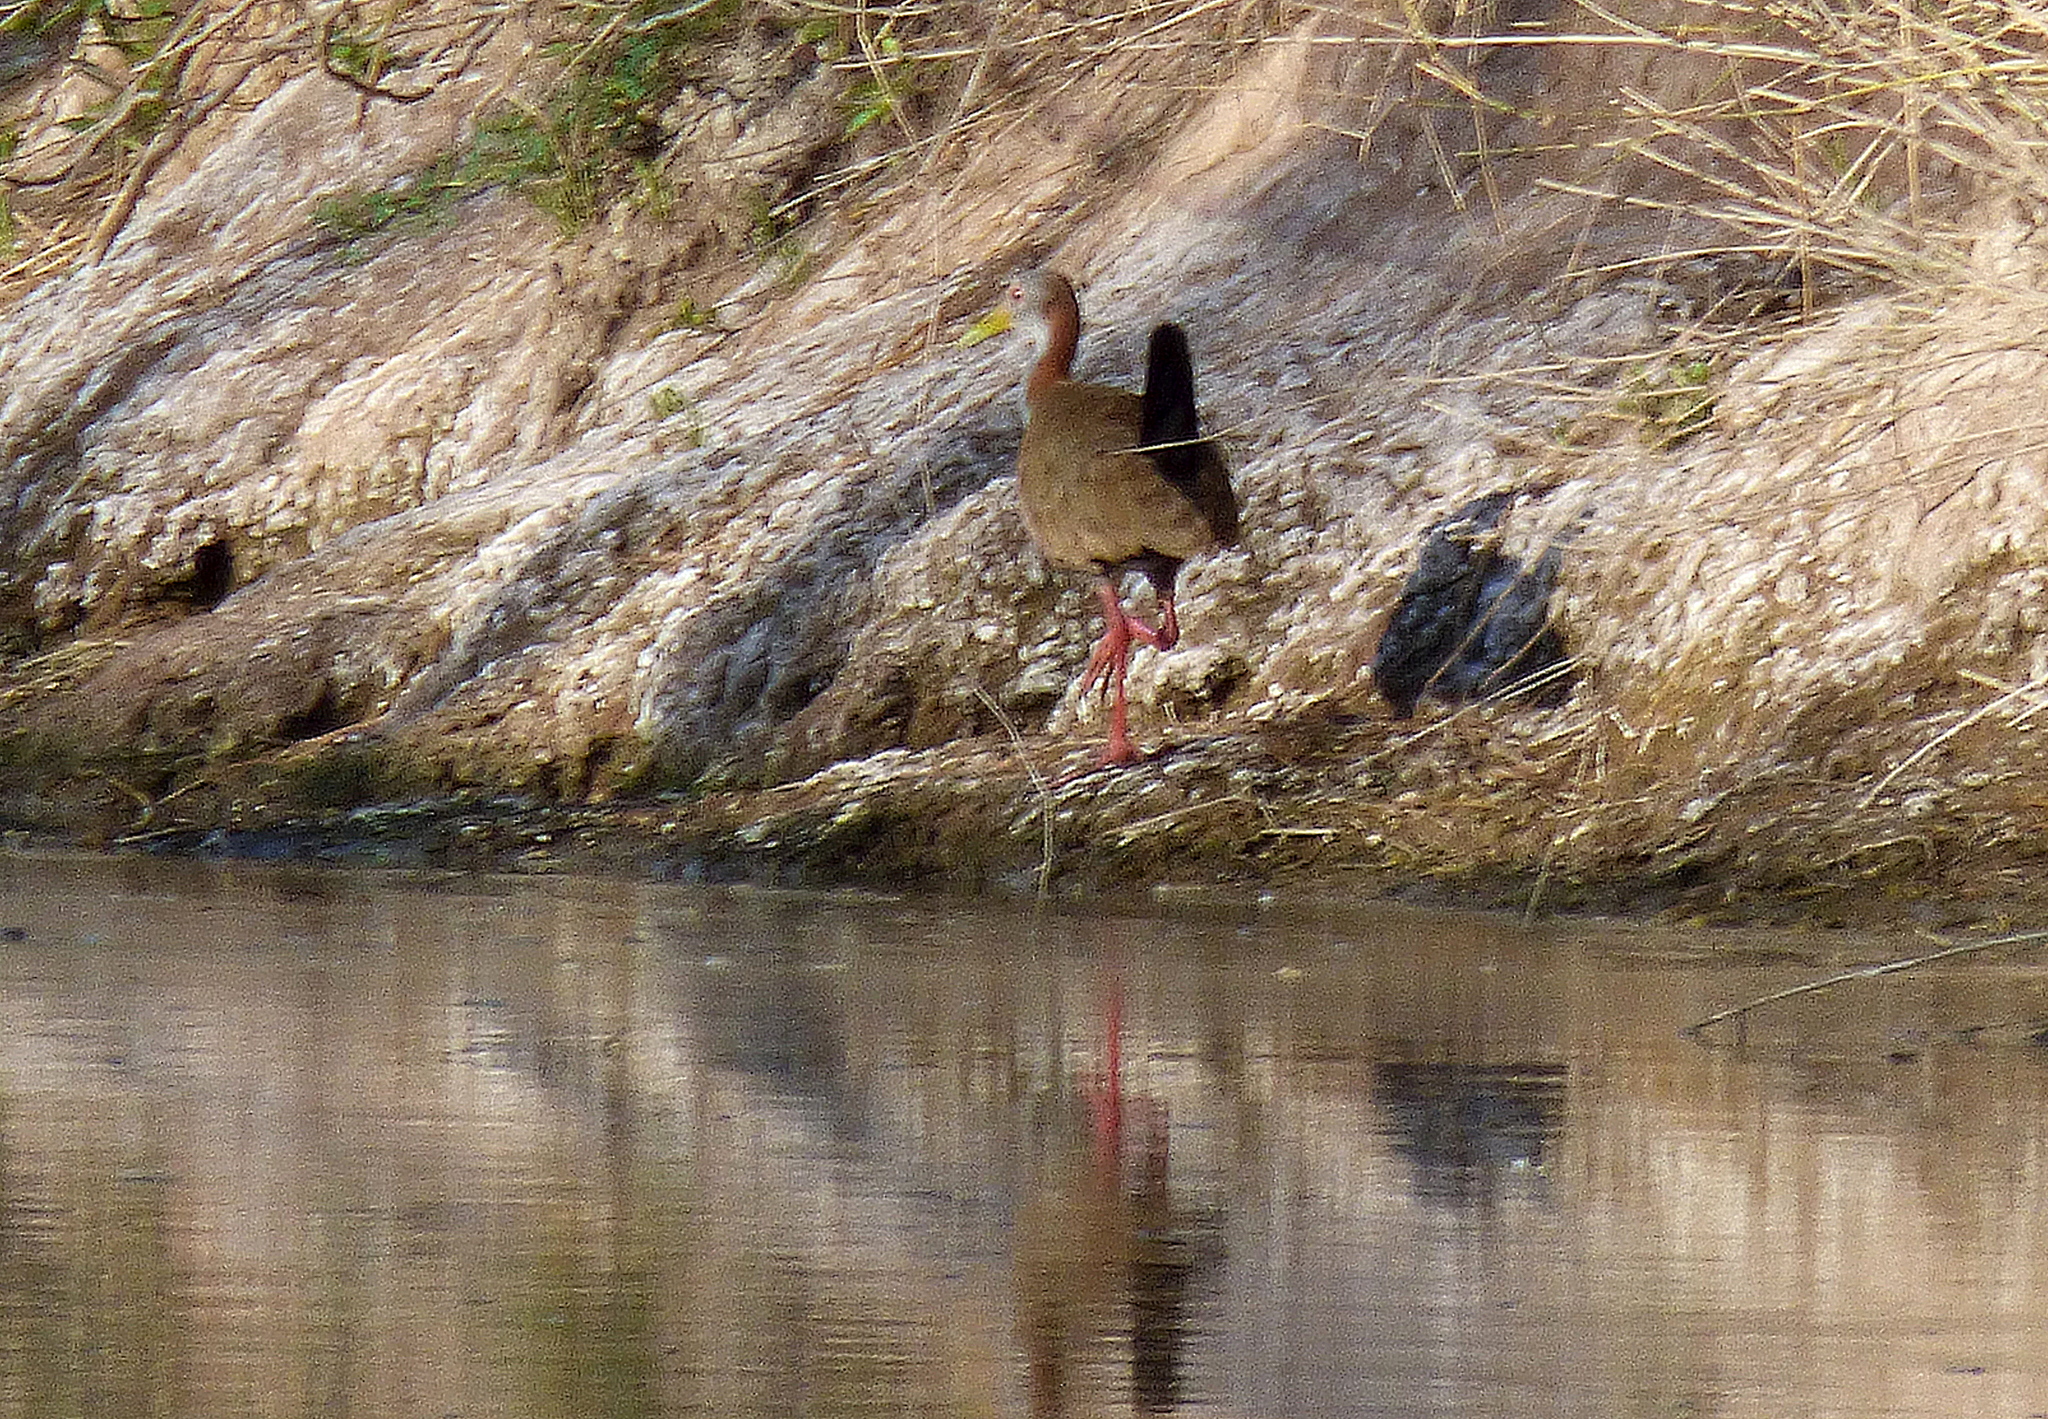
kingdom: Animalia
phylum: Chordata
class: Aves
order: Gruiformes
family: Rallidae
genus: Aramides
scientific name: Aramides ypecaha
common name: Giant wood rail
